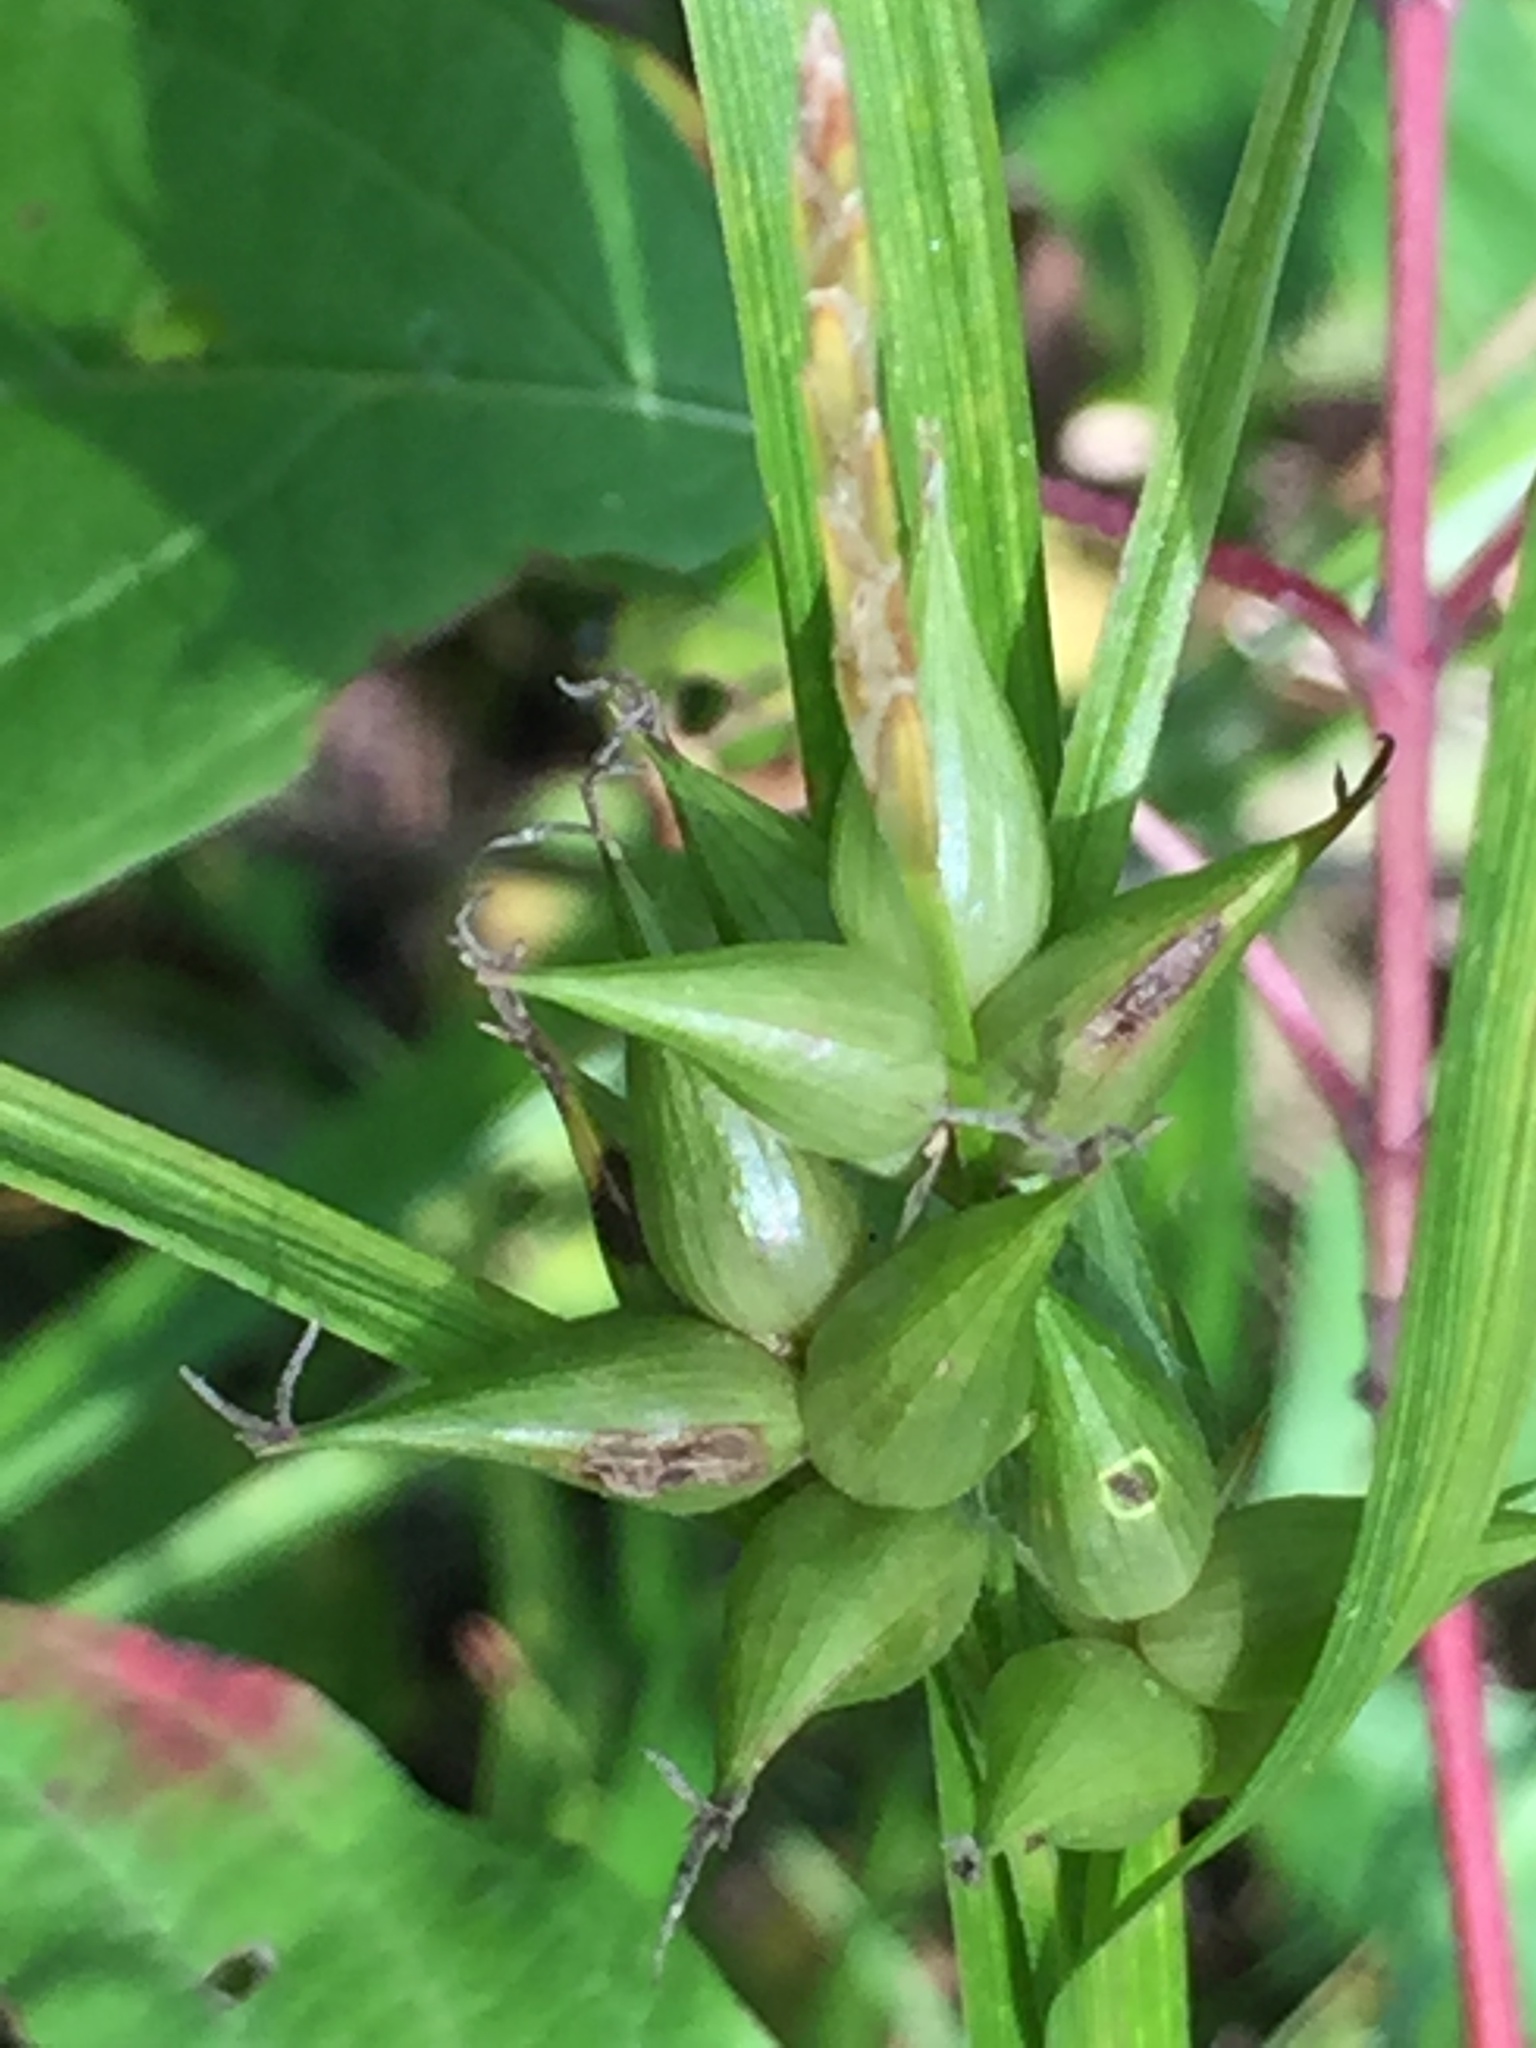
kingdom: Plantae
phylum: Tracheophyta
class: Liliopsida
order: Poales
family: Cyperaceae
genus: Carex
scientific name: Carex intumescens
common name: Greater bladder sedge
